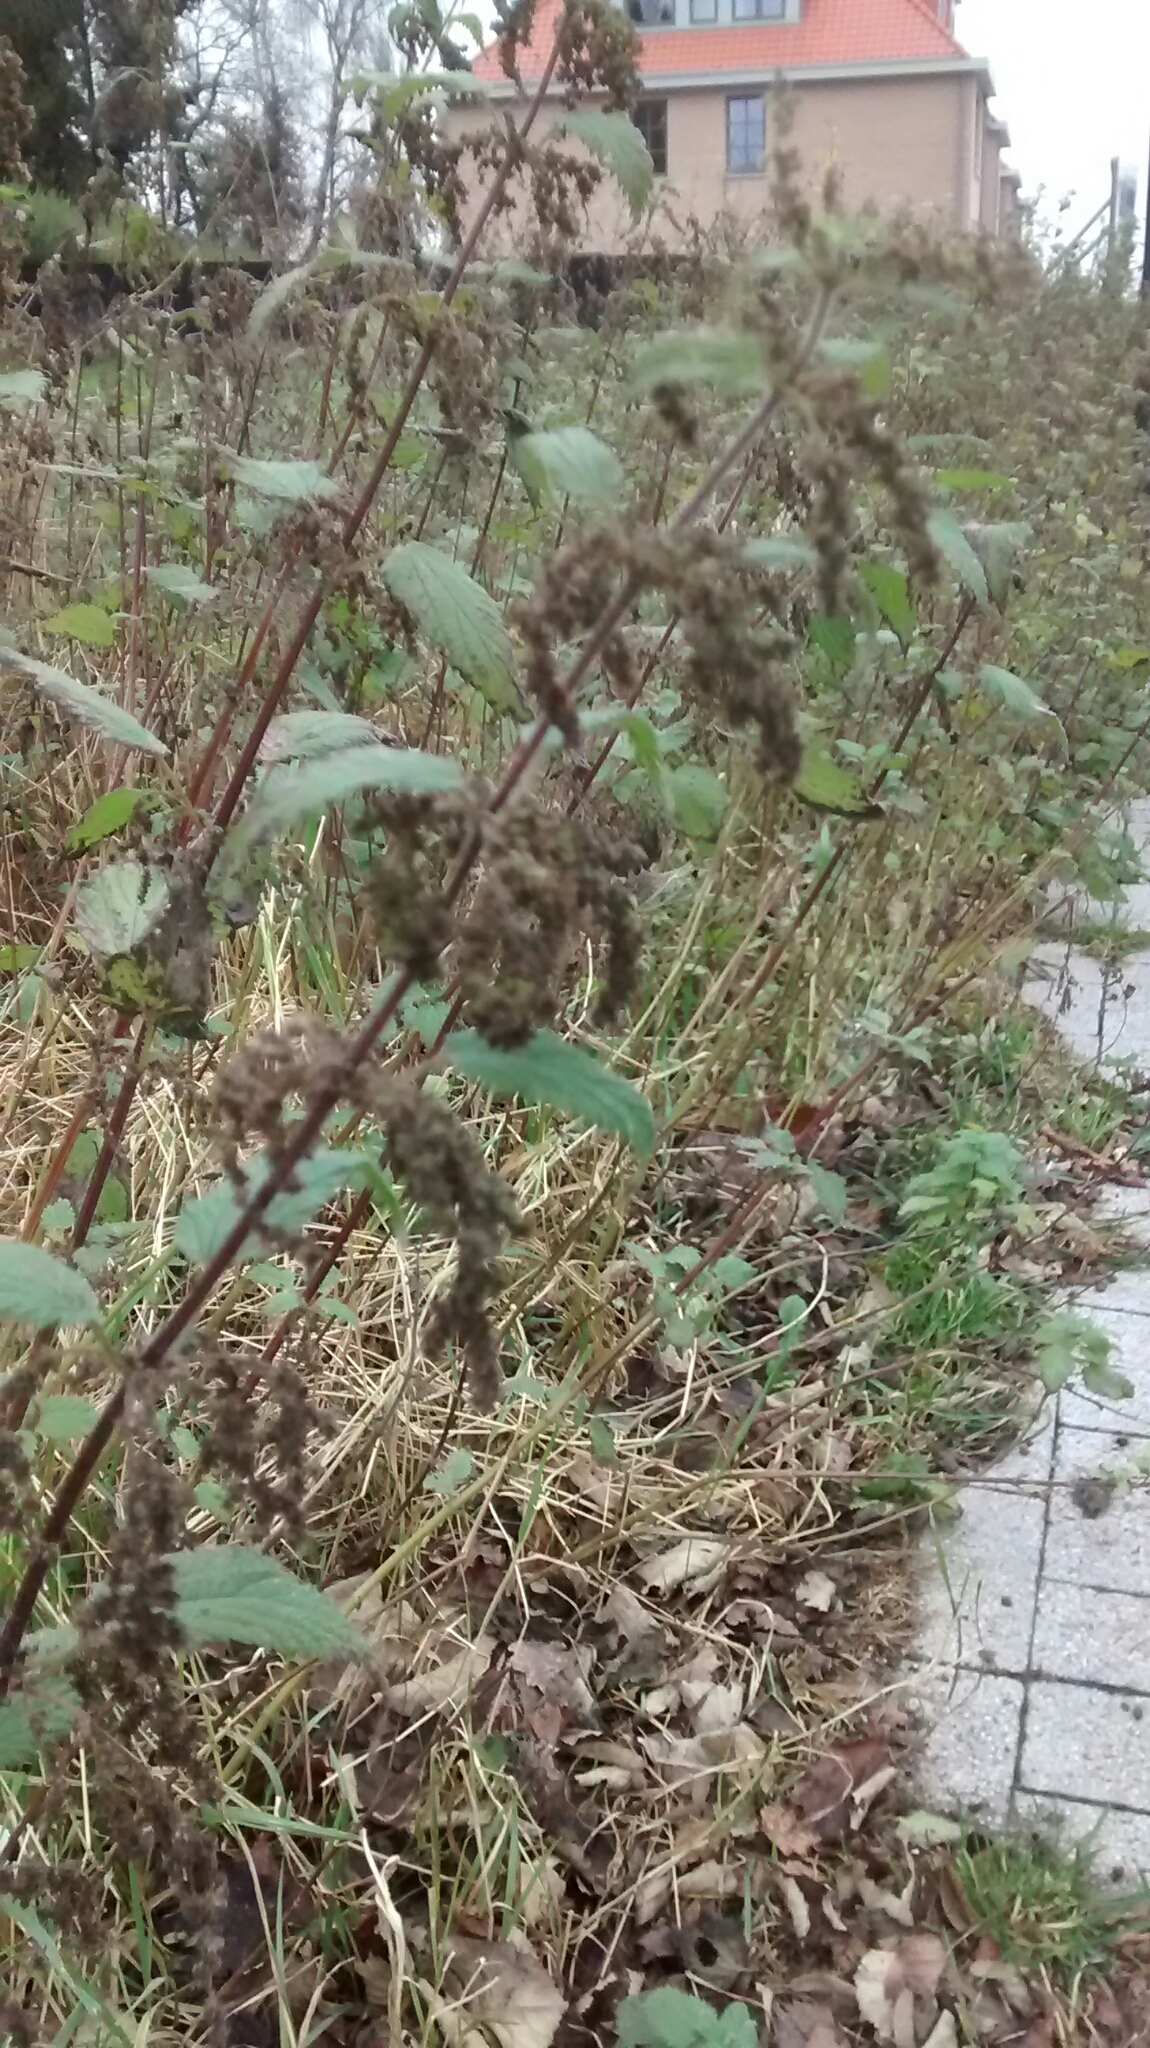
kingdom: Plantae
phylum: Tracheophyta
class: Magnoliopsida
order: Rosales
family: Urticaceae
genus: Urtica
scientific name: Urtica dioica
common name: Common nettle
